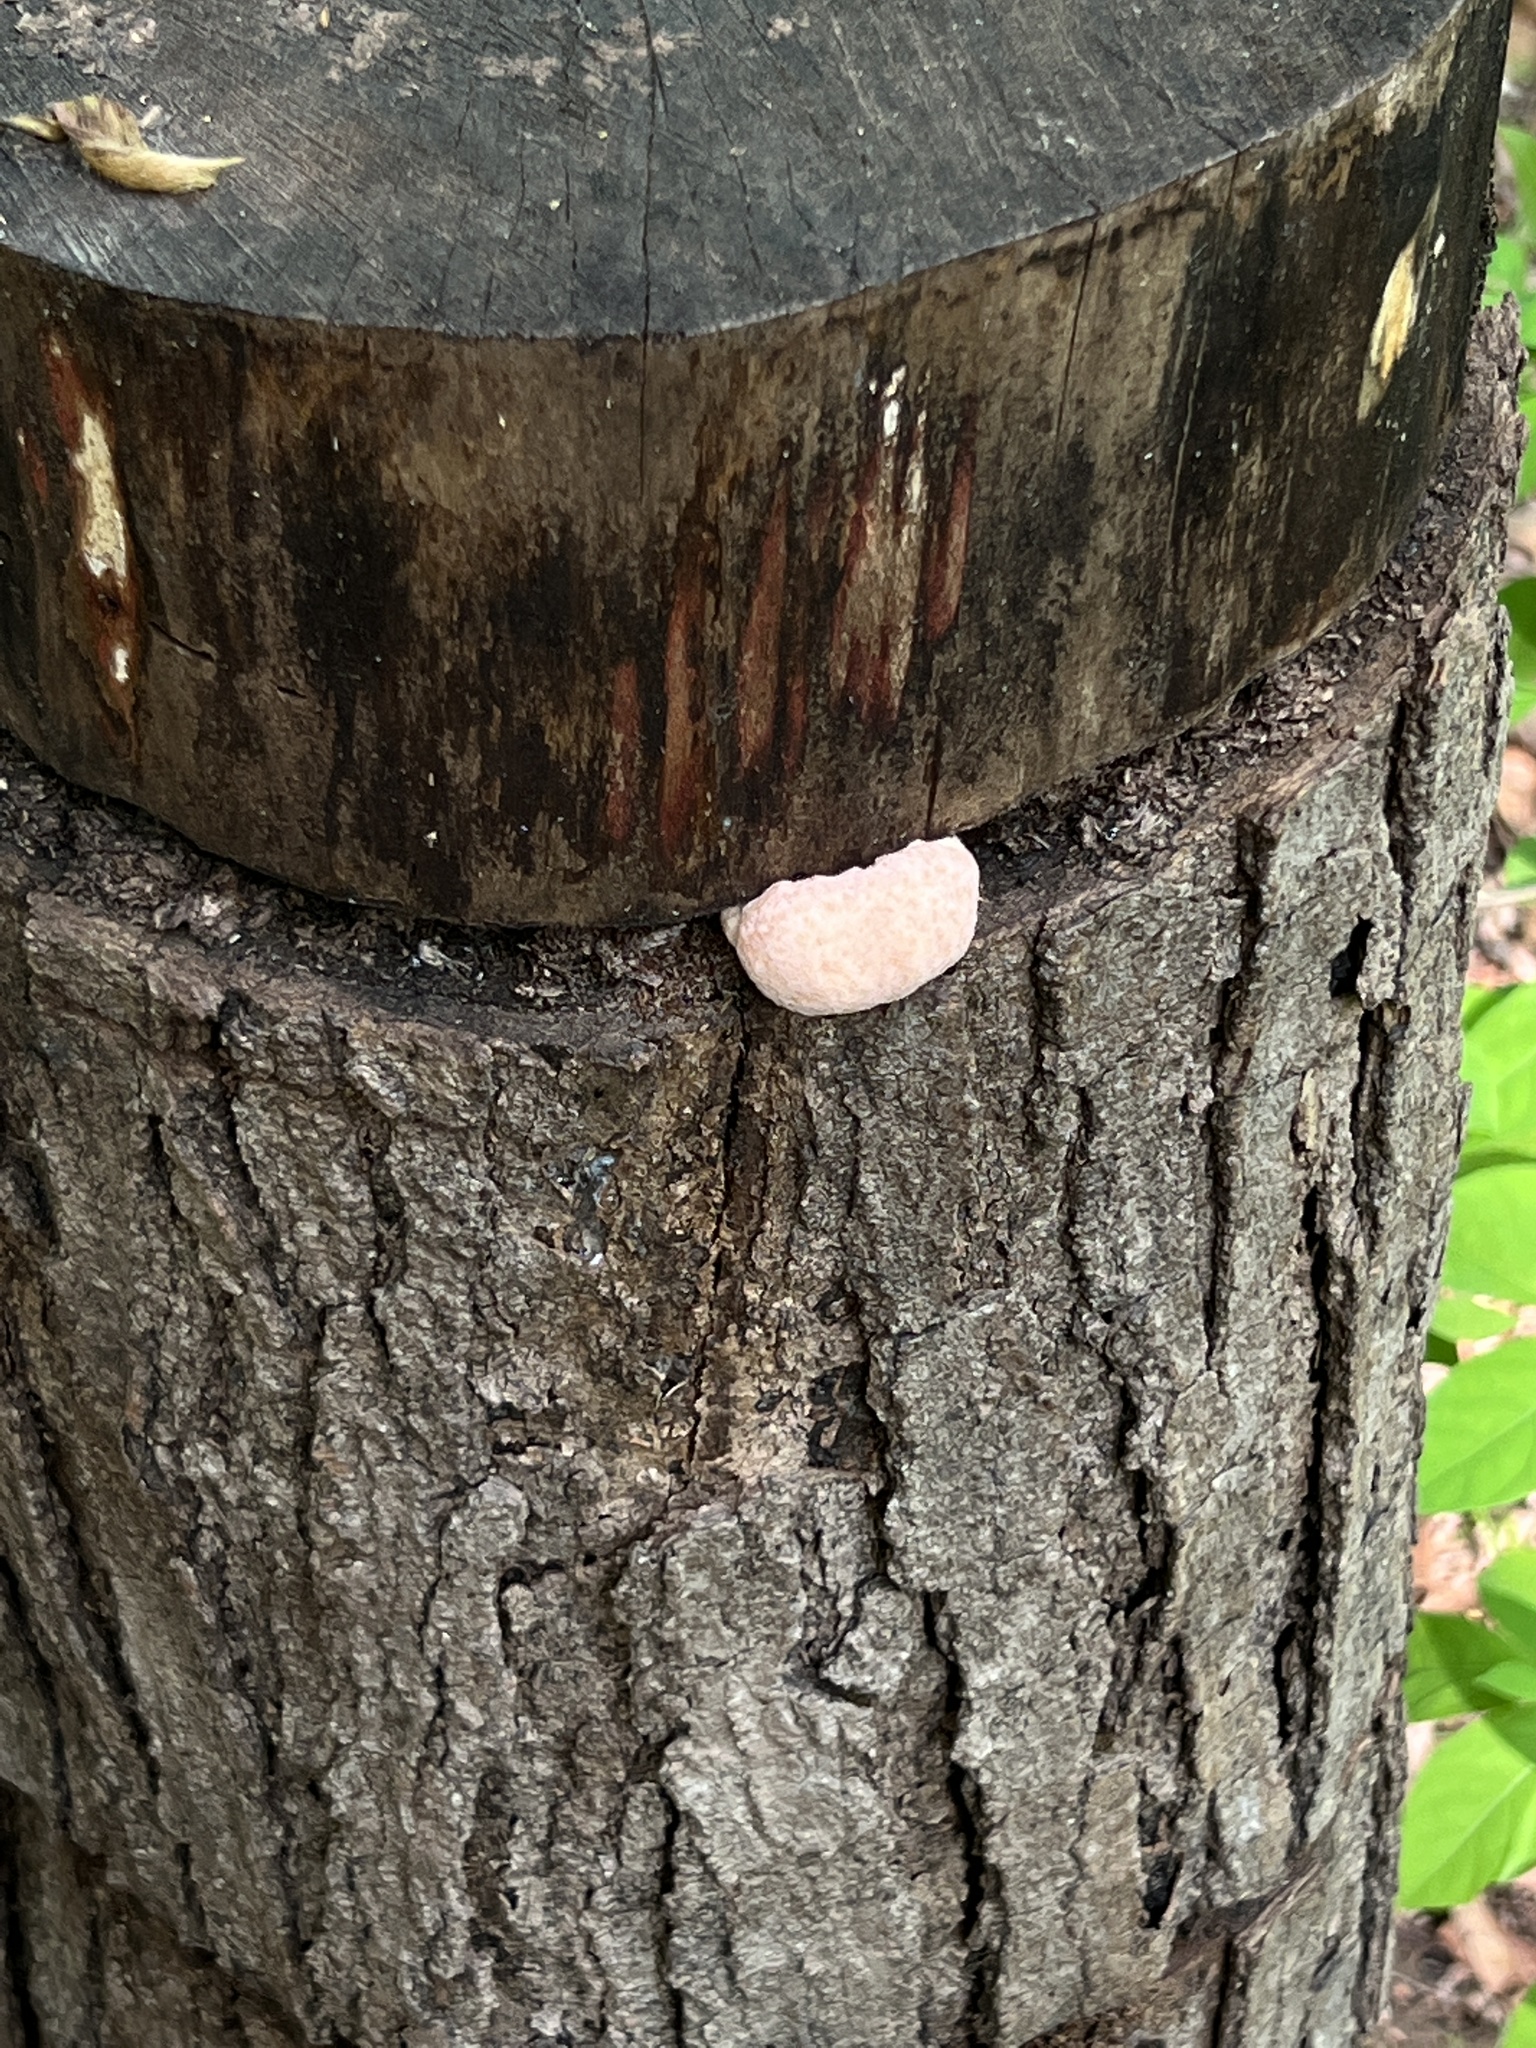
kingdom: Fungi
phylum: Basidiomycota
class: Agaricomycetes
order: Russulales
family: Hericiaceae
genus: Hericium
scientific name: Hericium erinaceus
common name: Bearded tooth
